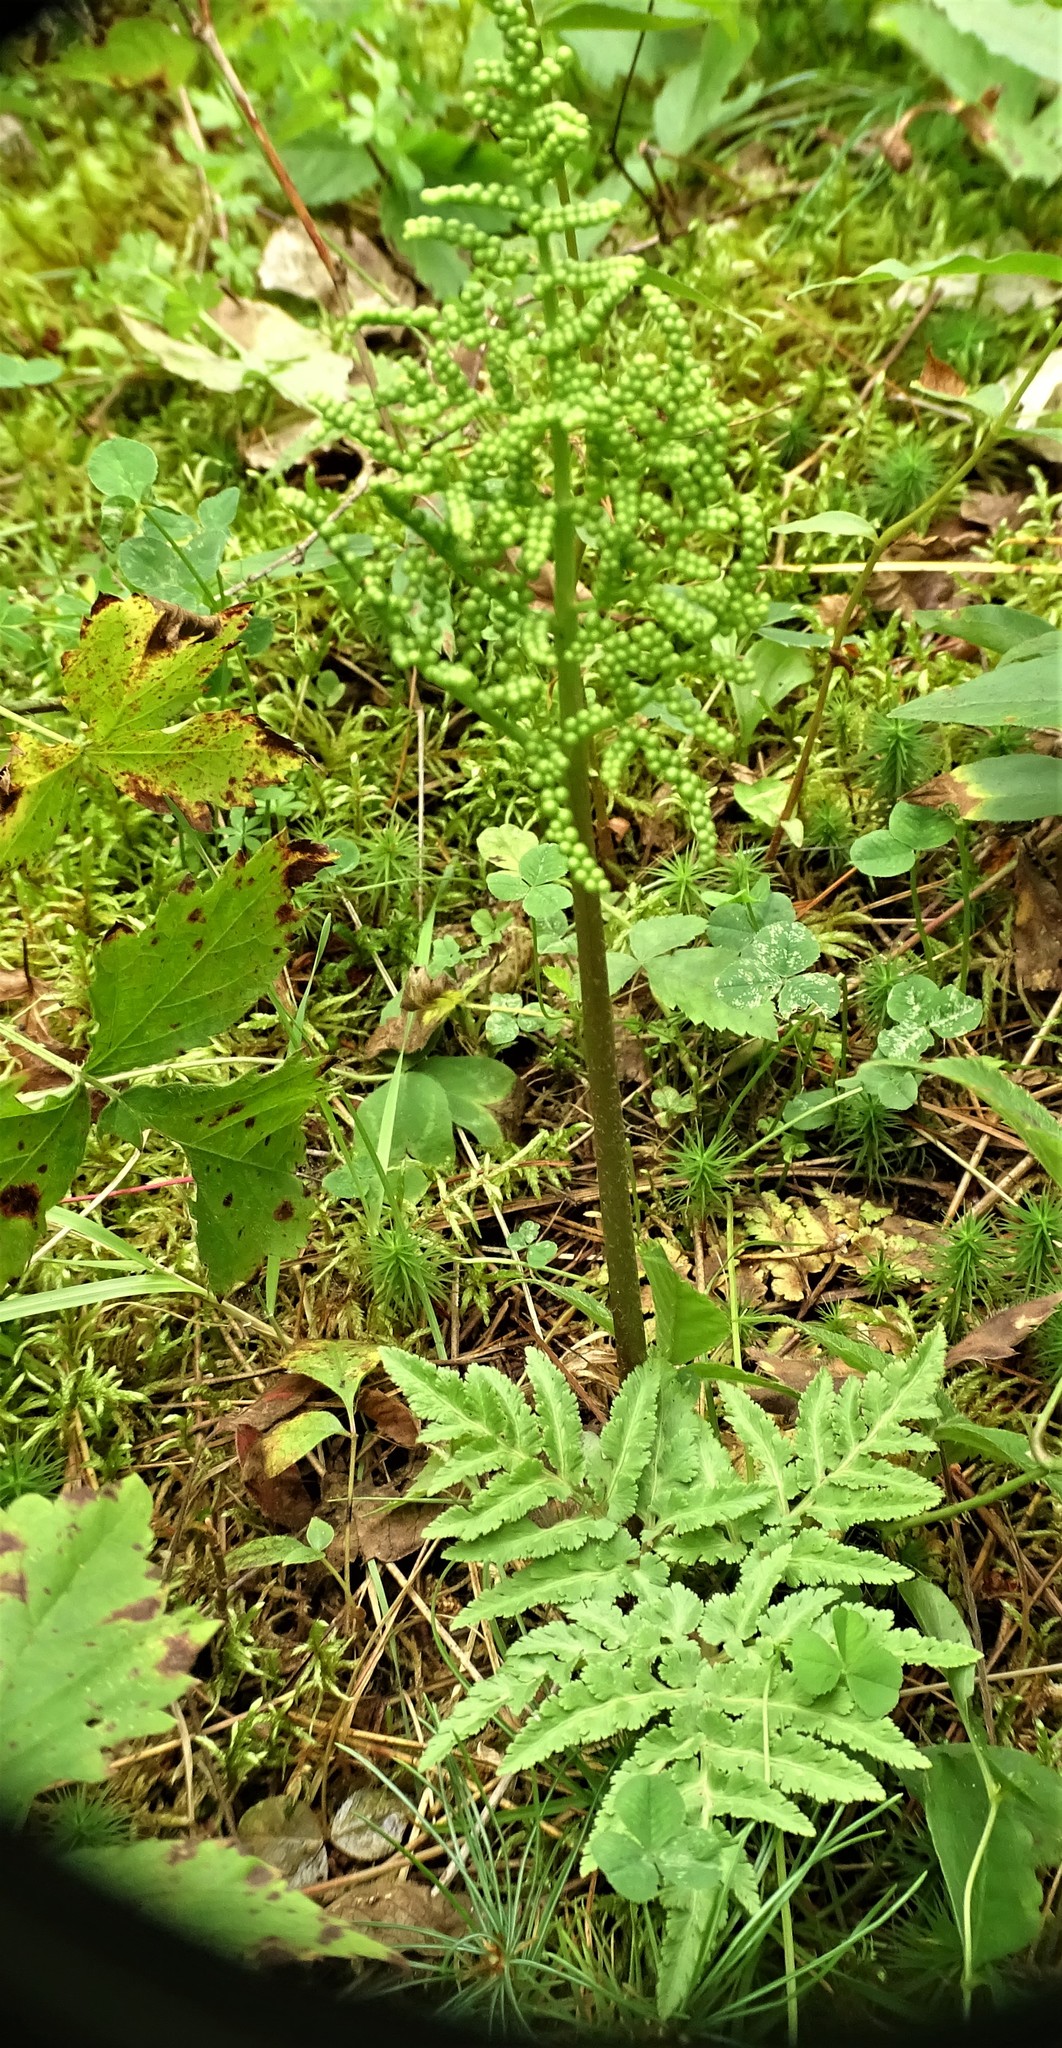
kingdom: Plantae
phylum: Tracheophyta
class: Polypodiopsida
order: Ophioglossales
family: Ophioglossaceae
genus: Sceptridium
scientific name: Sceptridium dissectum
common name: Cut-leaved grapefern
